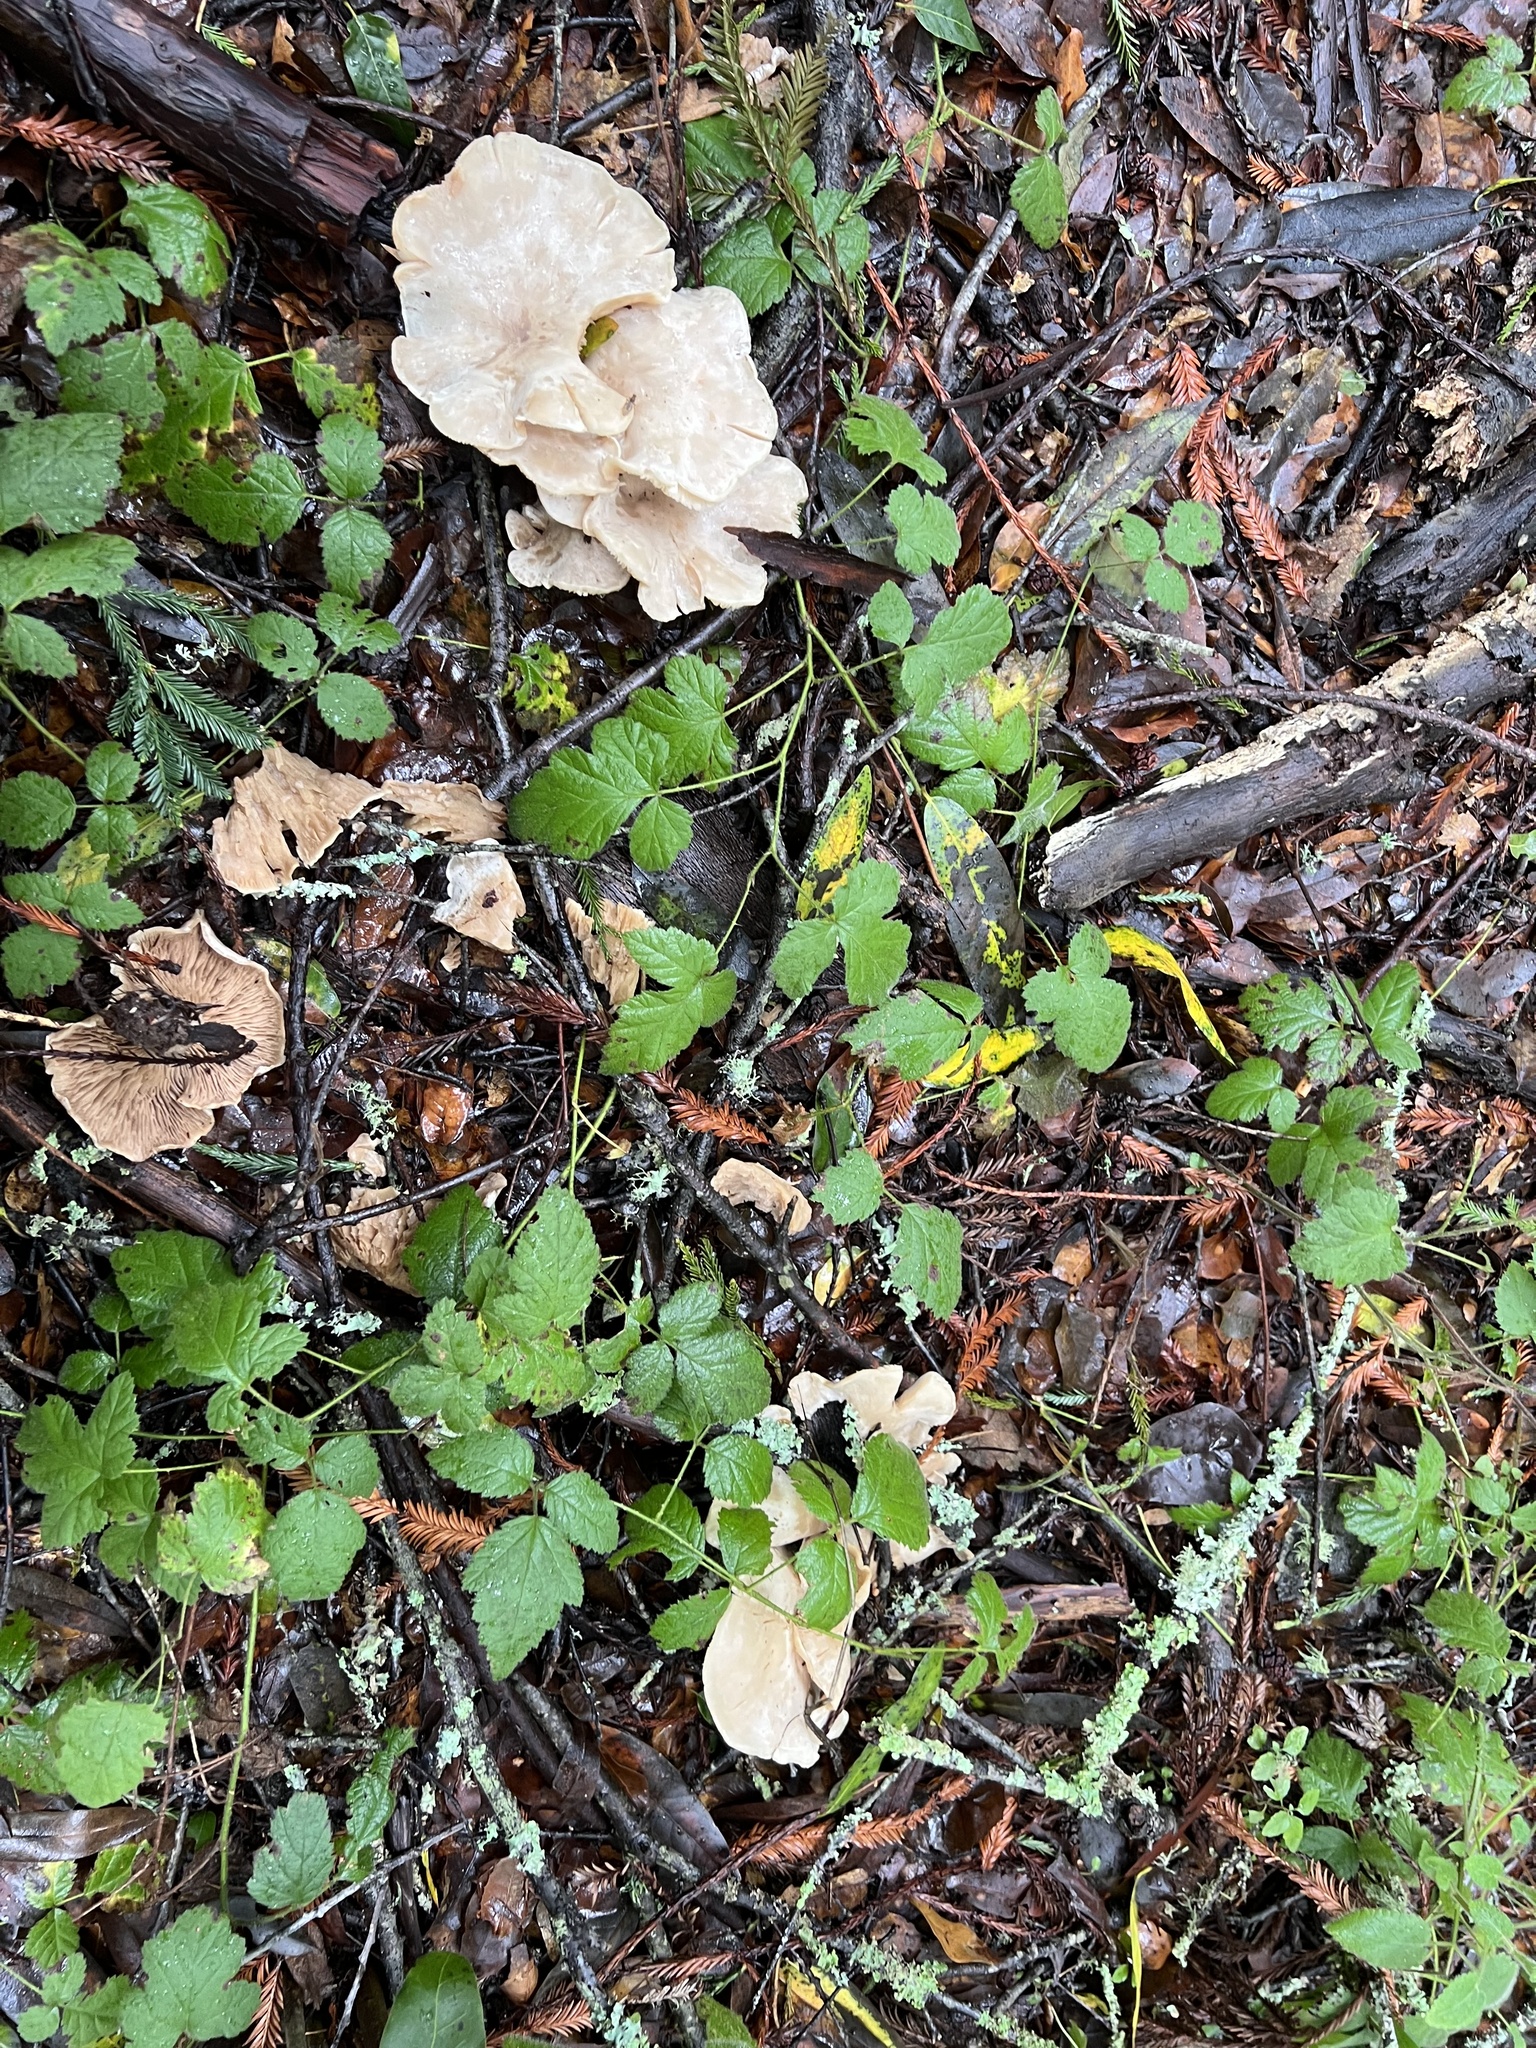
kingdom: Fungi
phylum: Basidiomycota
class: Agaricomycetes
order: Agaricales
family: Tricholomataceae
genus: Lepista
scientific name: Lepista subconnexa
